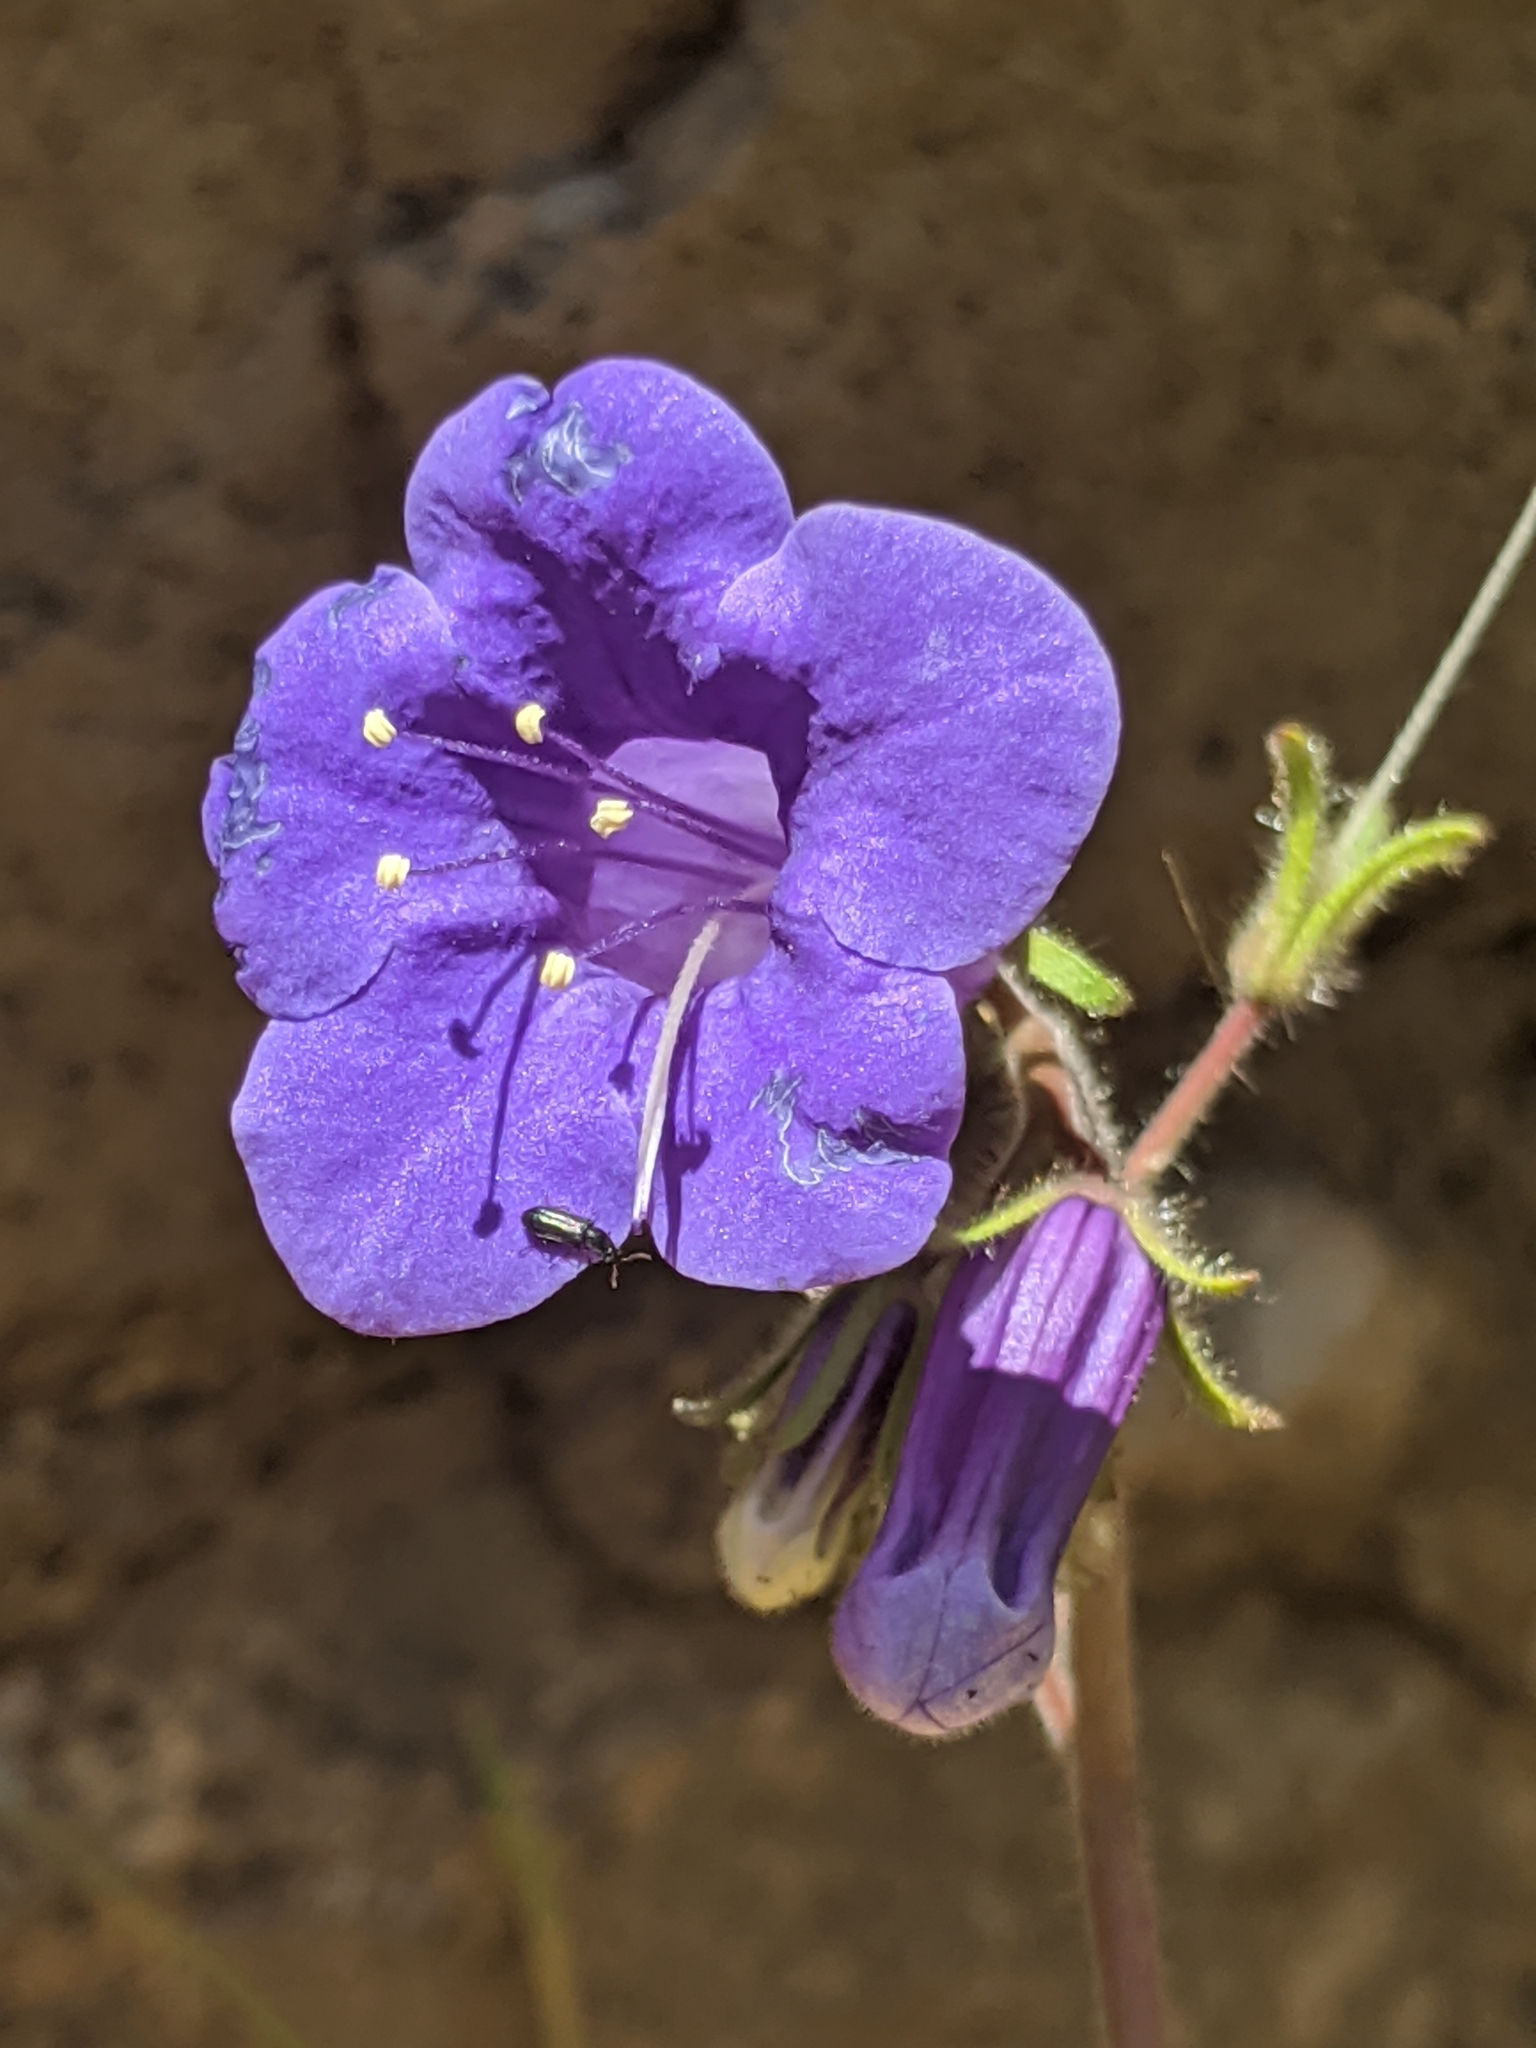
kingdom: Plantae
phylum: Tracheophyta
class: Magnoliopsida
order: Boraginales
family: Hydrophyllaceae
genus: Phacelia
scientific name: Phacelia minor
